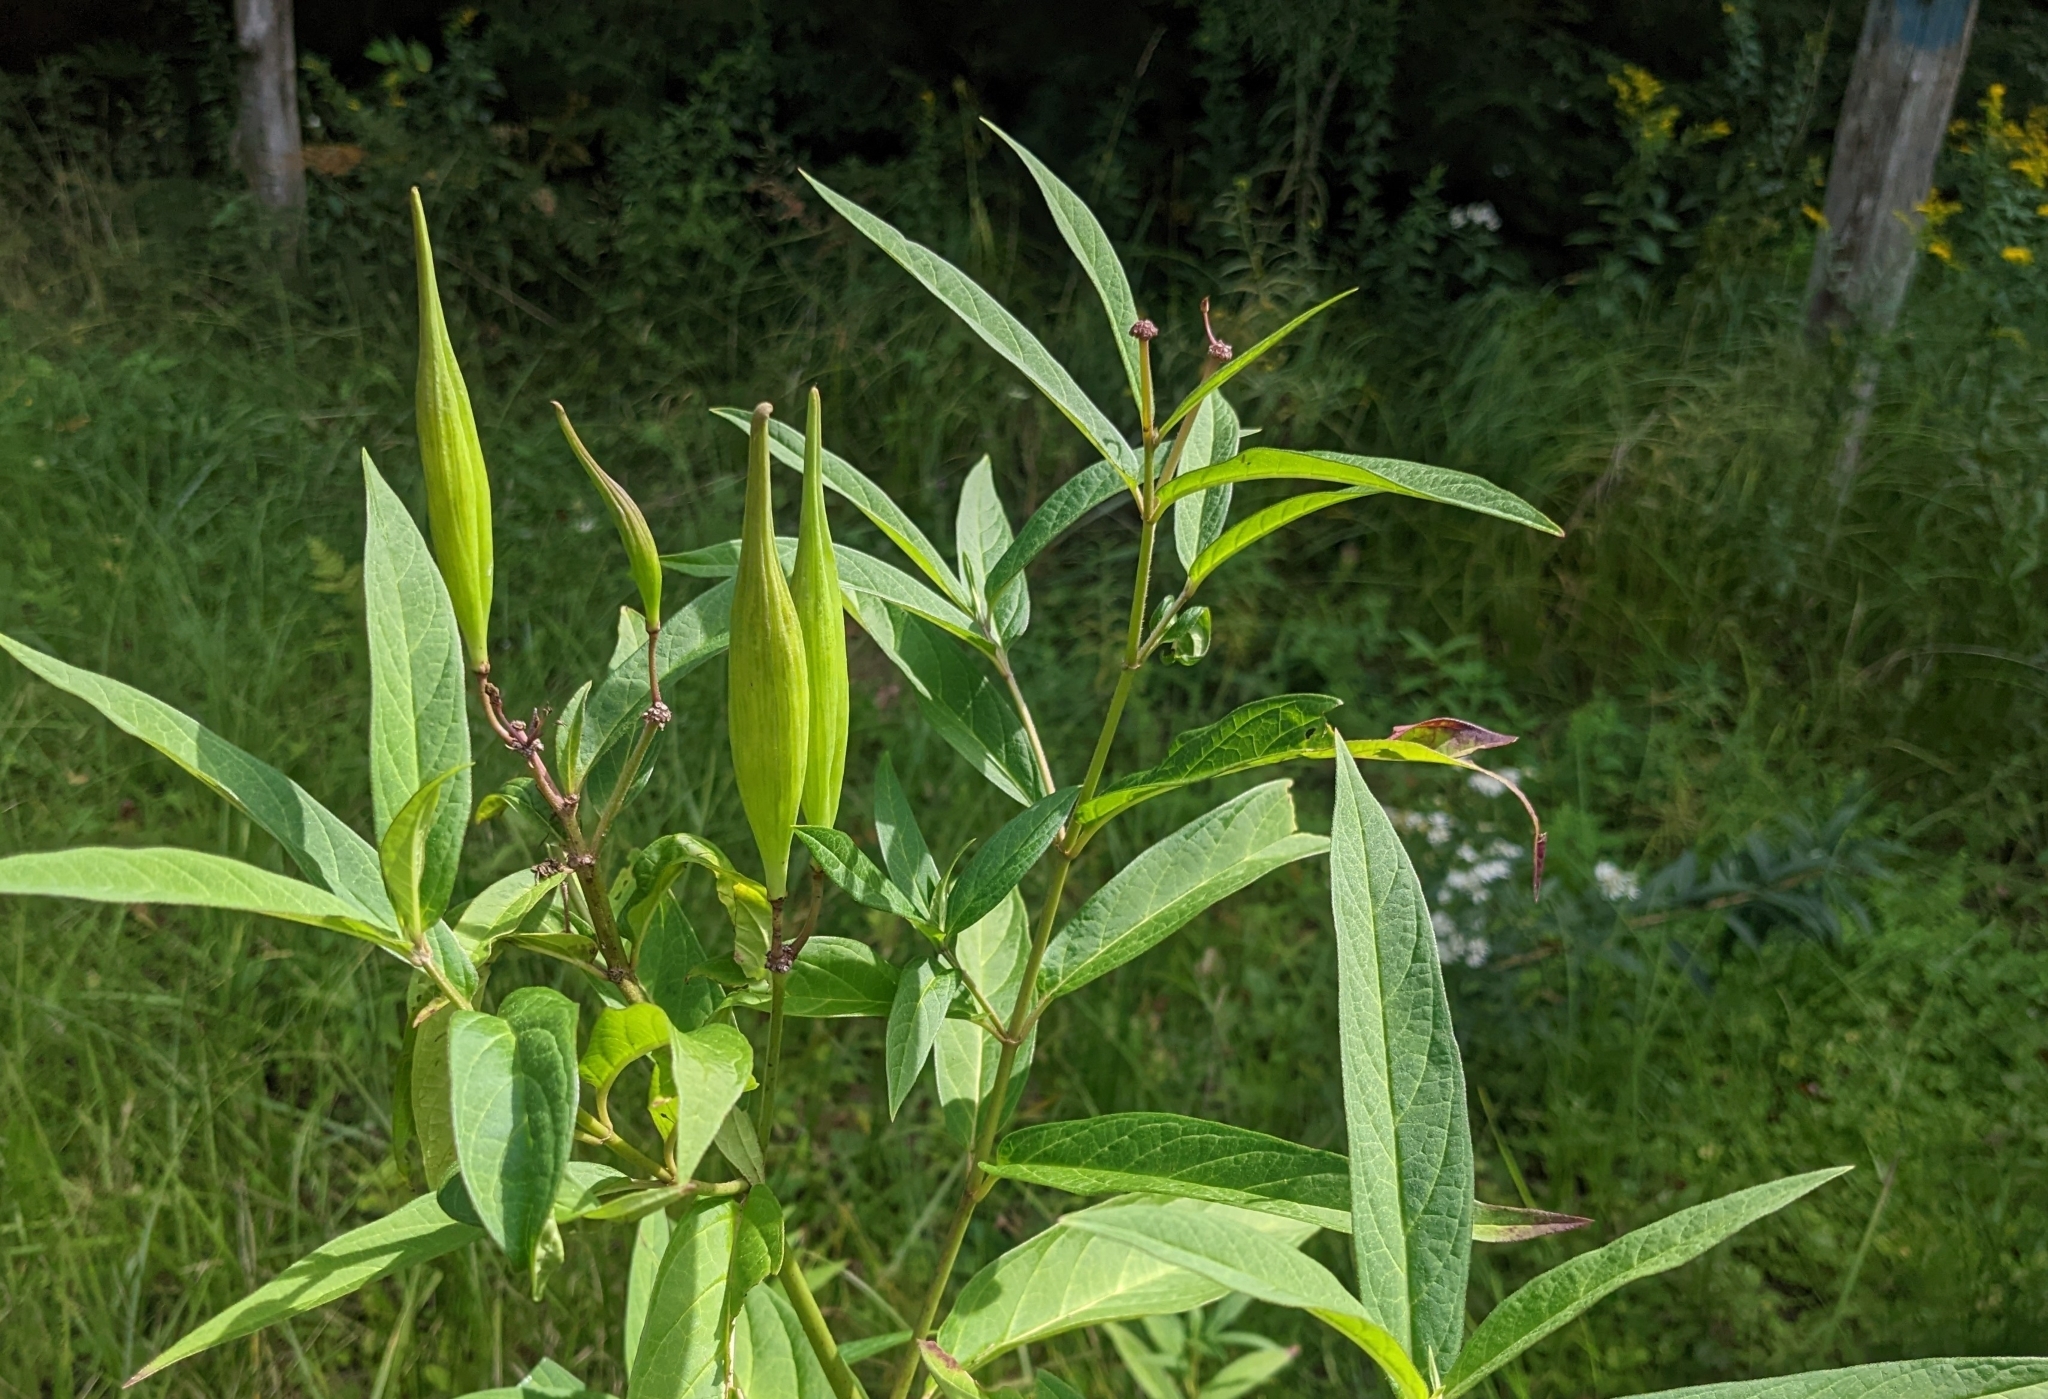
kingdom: Plantae
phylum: Tracheophyta
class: Magnoliopsida
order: Gentianales
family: Apocynaceae
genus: Asclepias
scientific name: Asclepias incarnata
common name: Swamp milkweed
